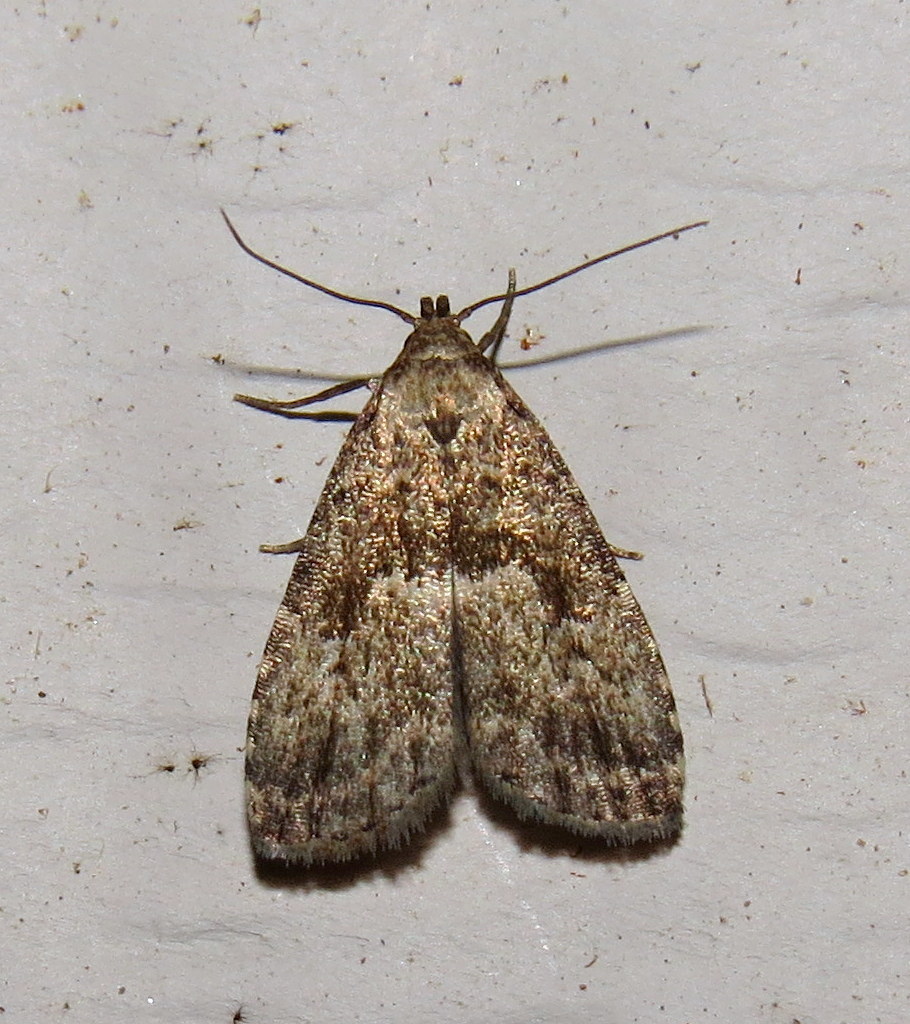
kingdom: Animalia
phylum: Arthropoda
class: Insecta
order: Lepidoptera
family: Erebidae
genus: Hypenodes
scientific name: Hypenodes franclemonti
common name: Franclemont's hypenodes moth
